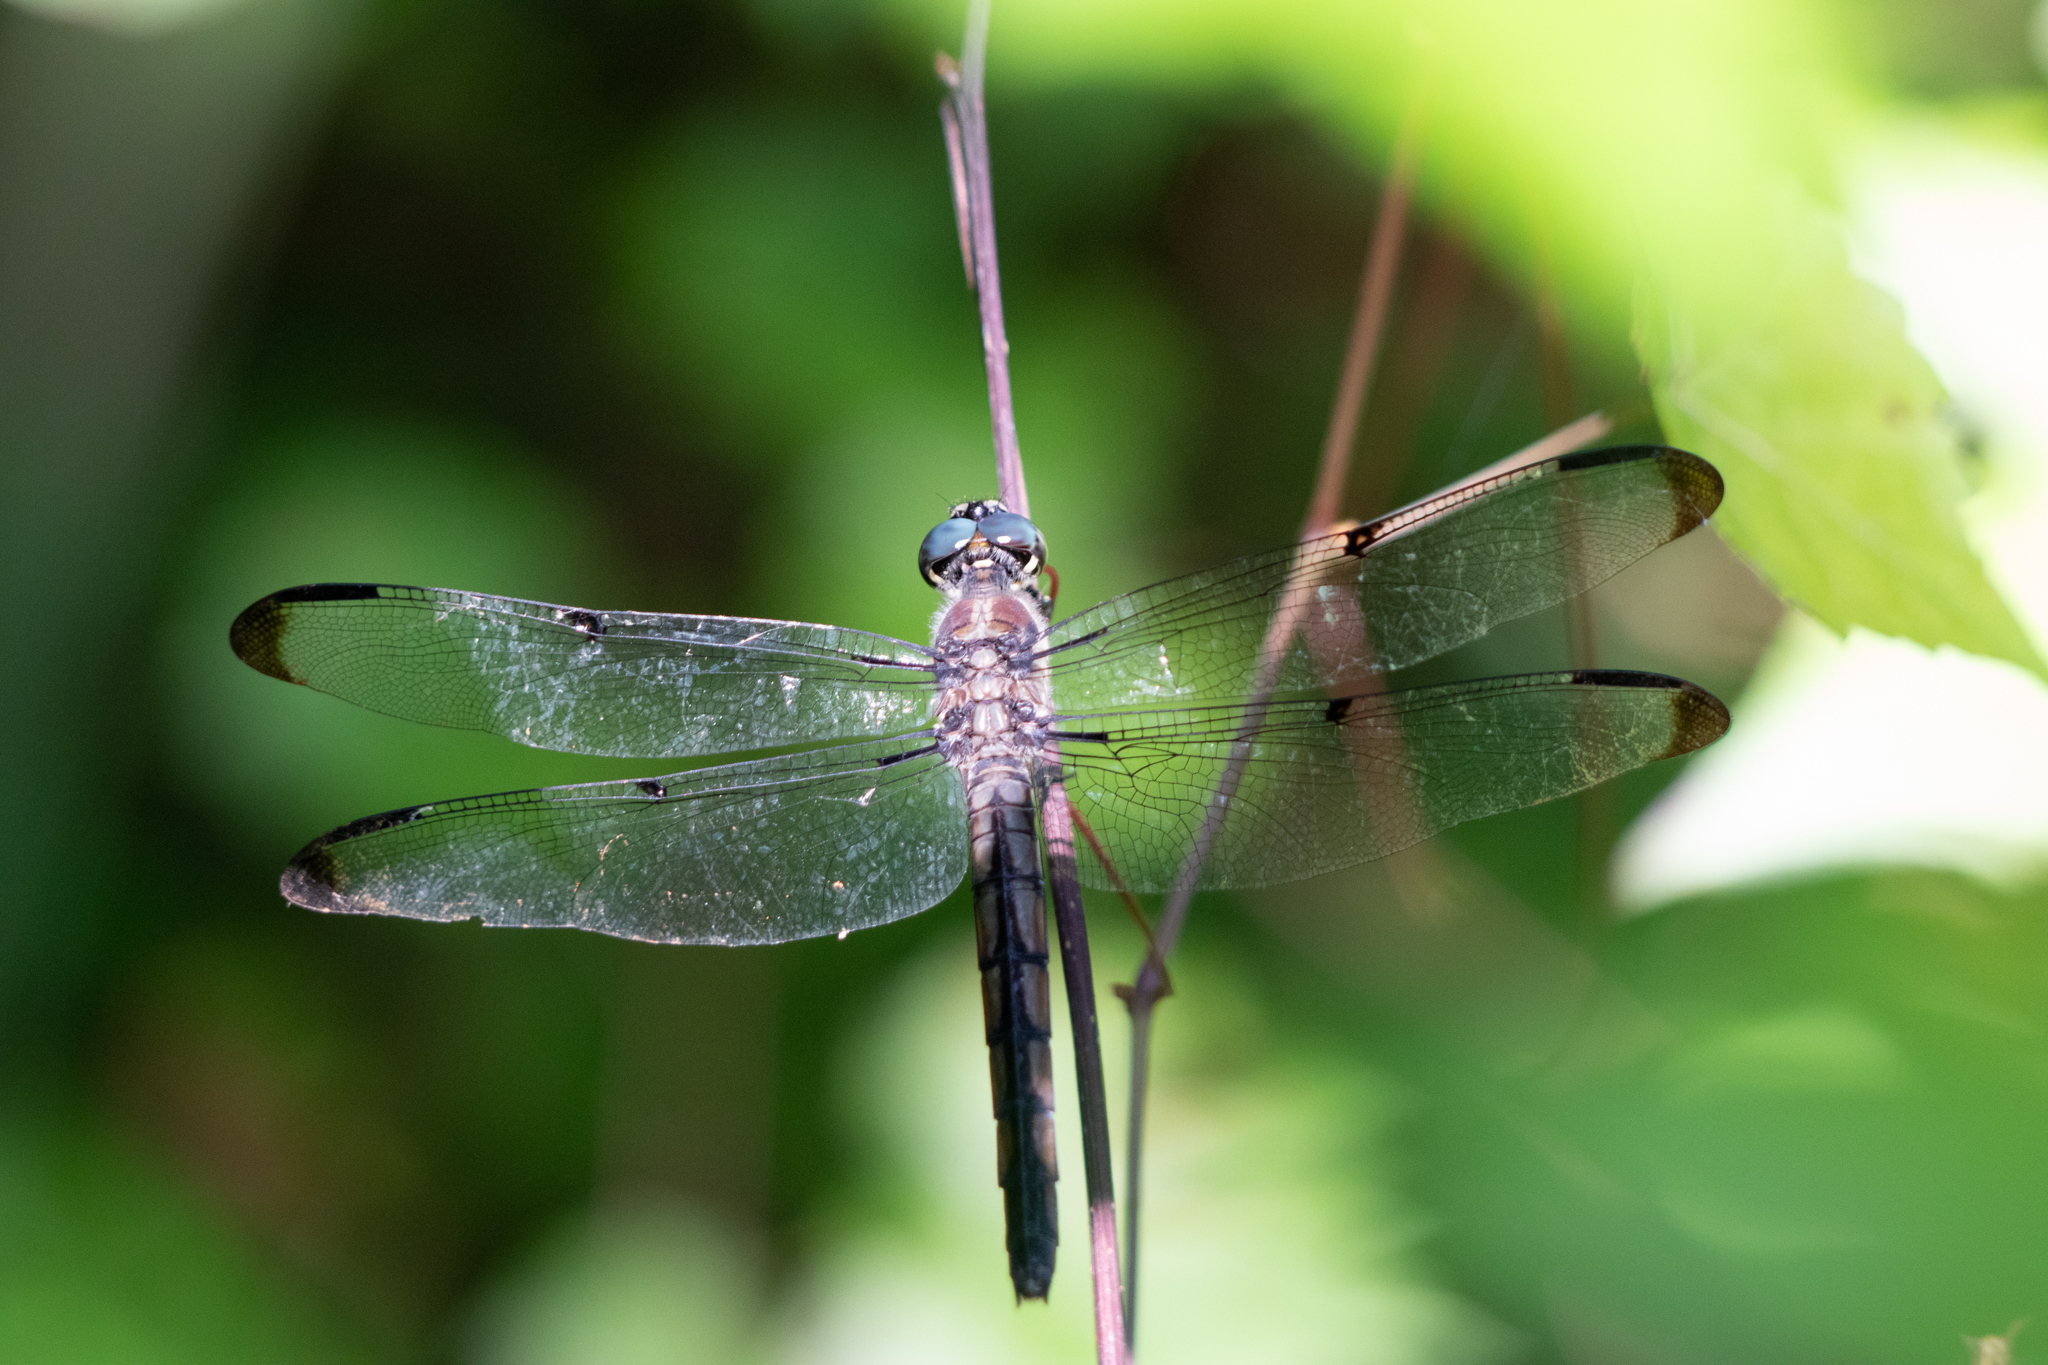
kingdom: Animalia
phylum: Arthropoda
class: Insecta
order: Odonata
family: Libellulidae
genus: Libellula
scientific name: Libellula vibrans
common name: Great blue skimmer
